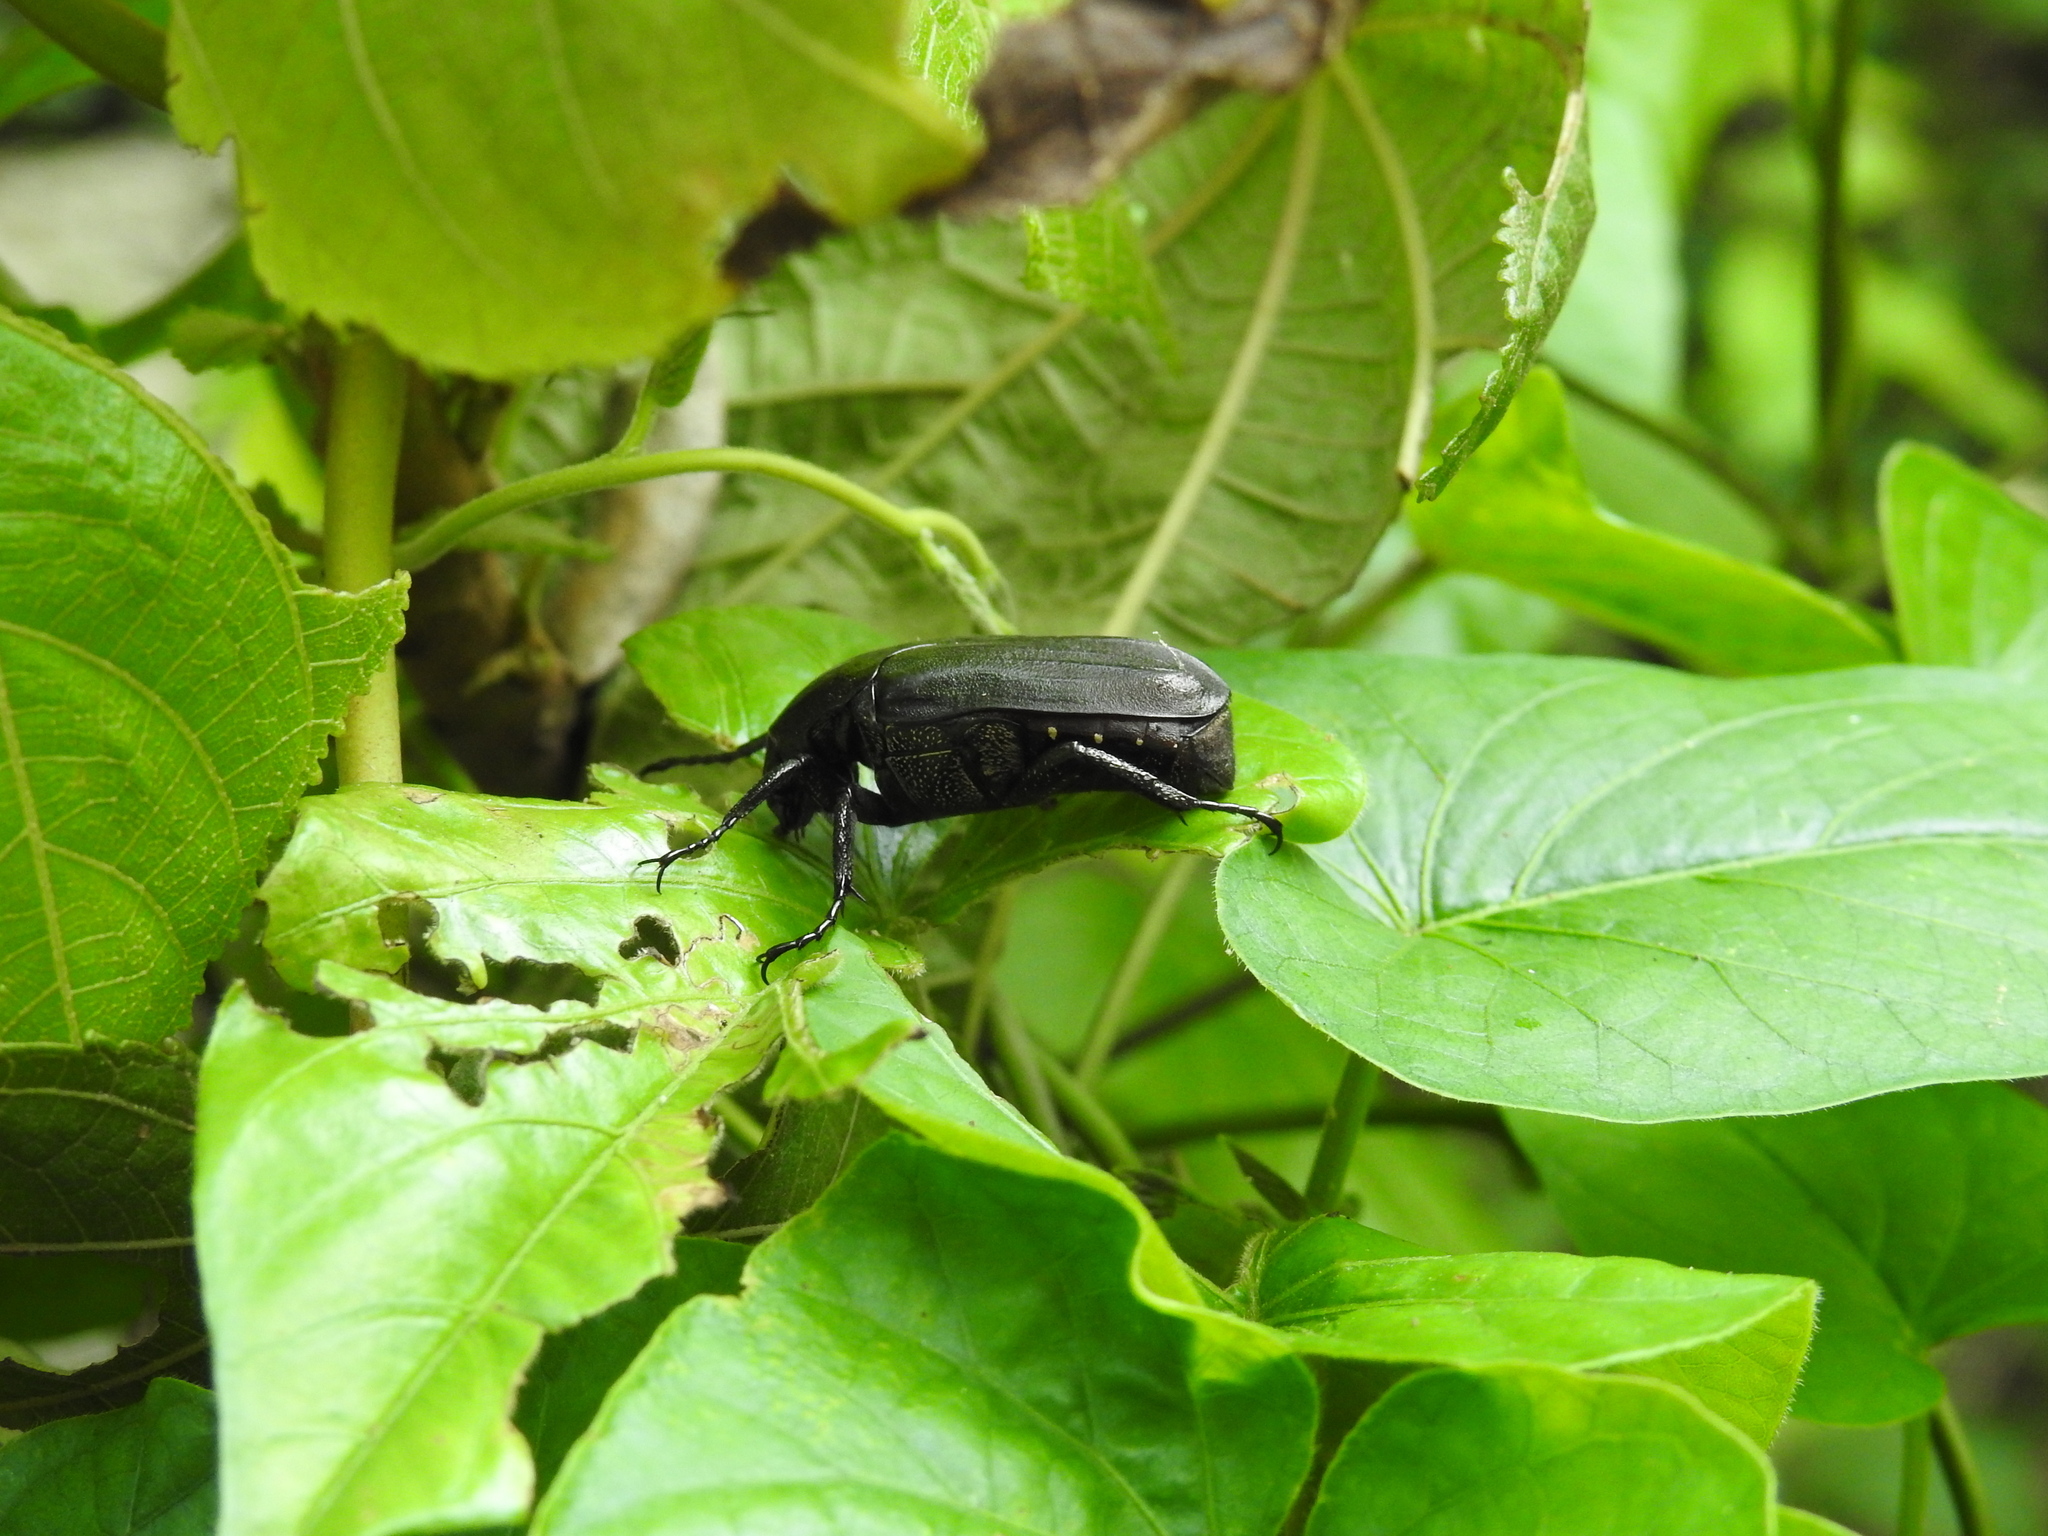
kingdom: Animalia
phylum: Arthropoda
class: Insecta
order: Coleoptera
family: Scarabaeidae
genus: Amithao
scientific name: Amithao cavifrons
